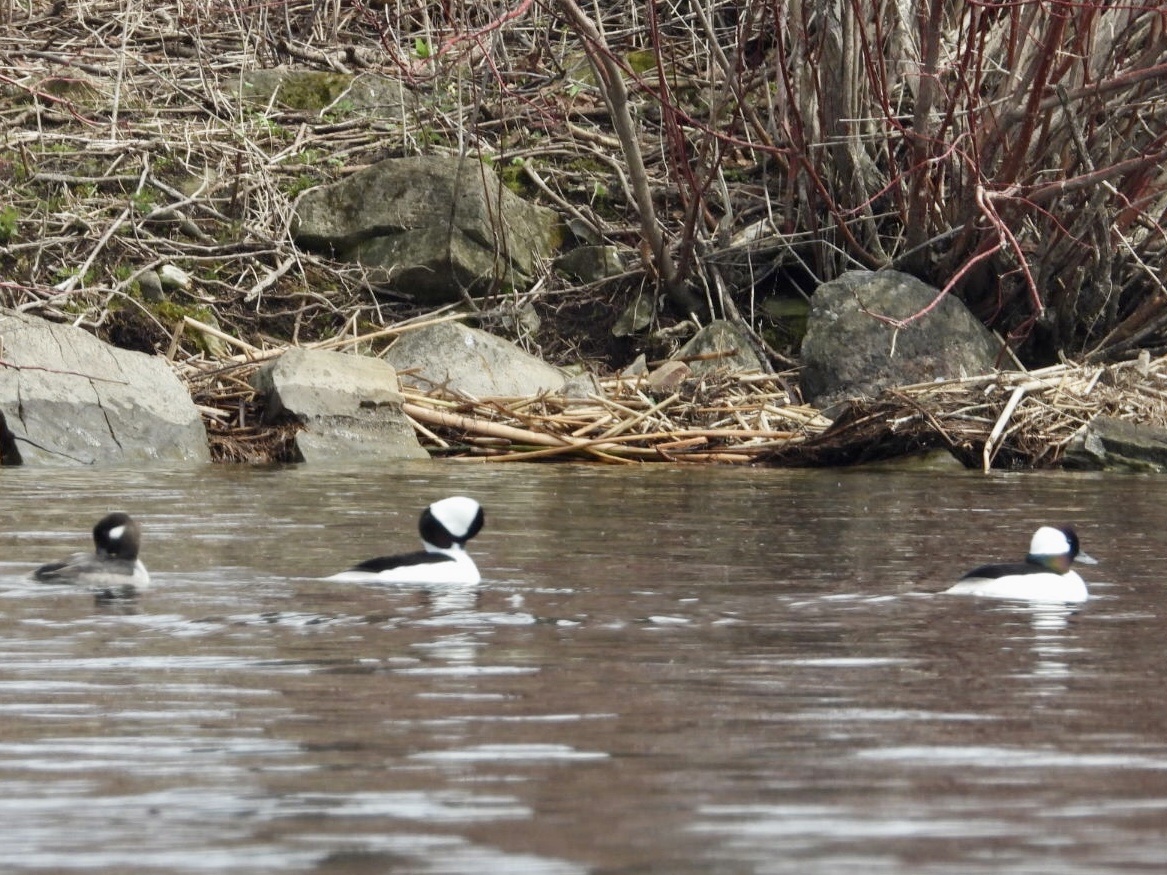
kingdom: Animalia
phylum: Chordata
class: Aves
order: Anseriformes
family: Anatidae
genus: Bucephala
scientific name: Bucephala albeola
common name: Bufflehead
